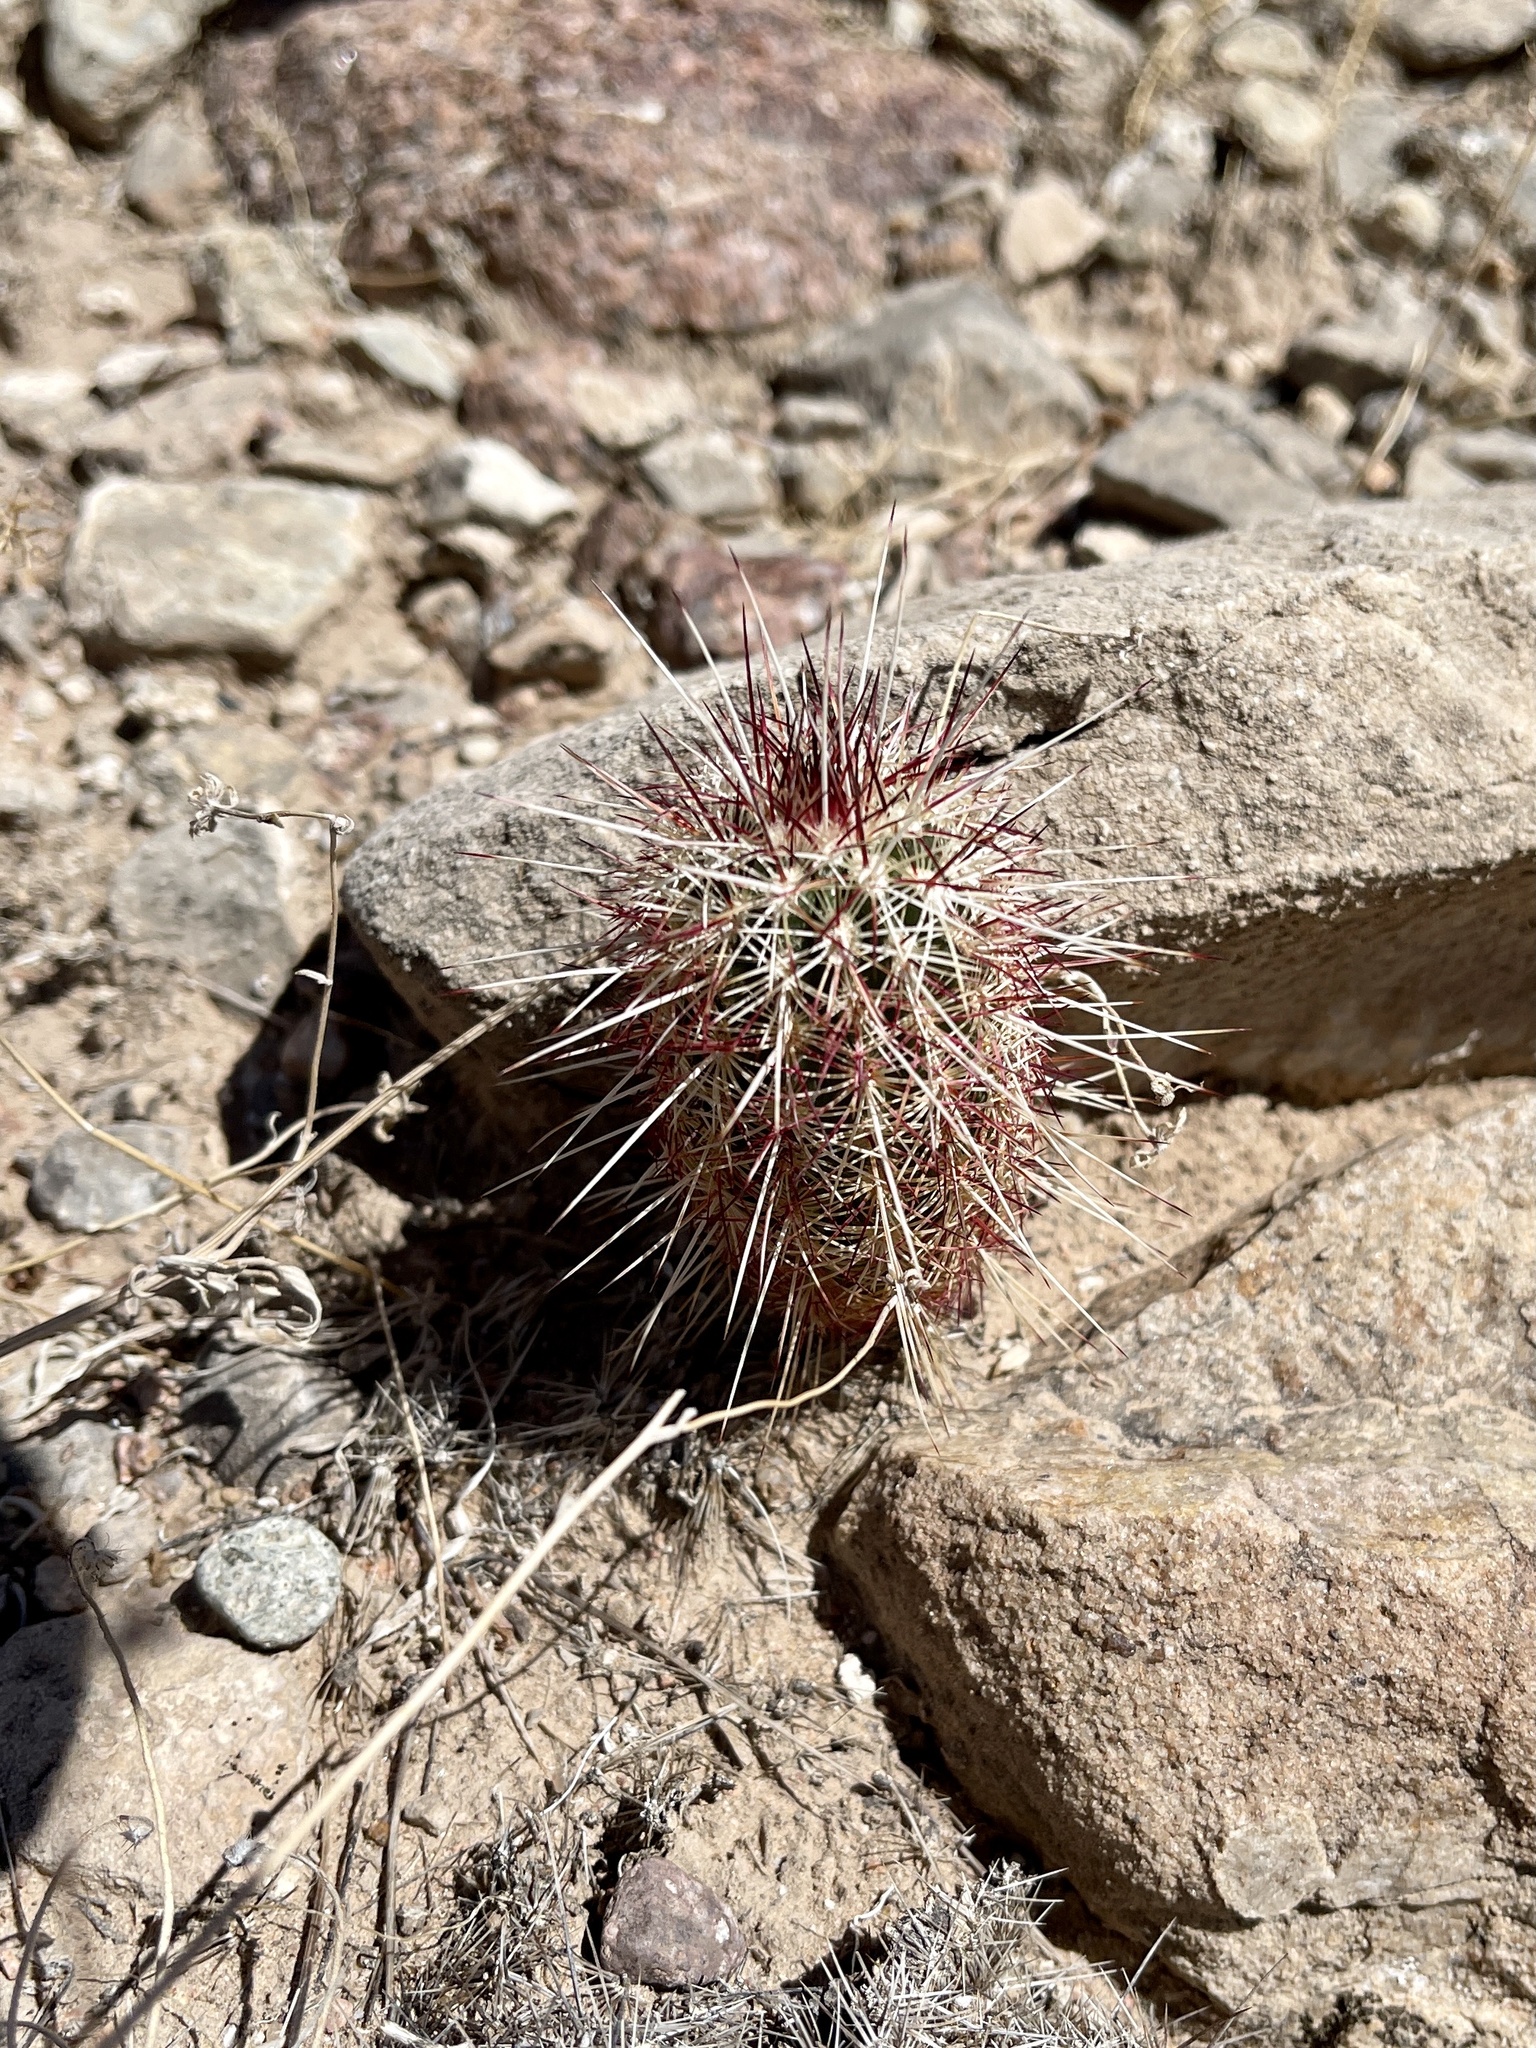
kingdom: Plantae
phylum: Tracheophyta
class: Magnoliopsida
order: Caryophyllales
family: Cactaceae
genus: Echinocereus
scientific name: Echinocereus viridiflorus
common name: Nylon hedgehog cactus
